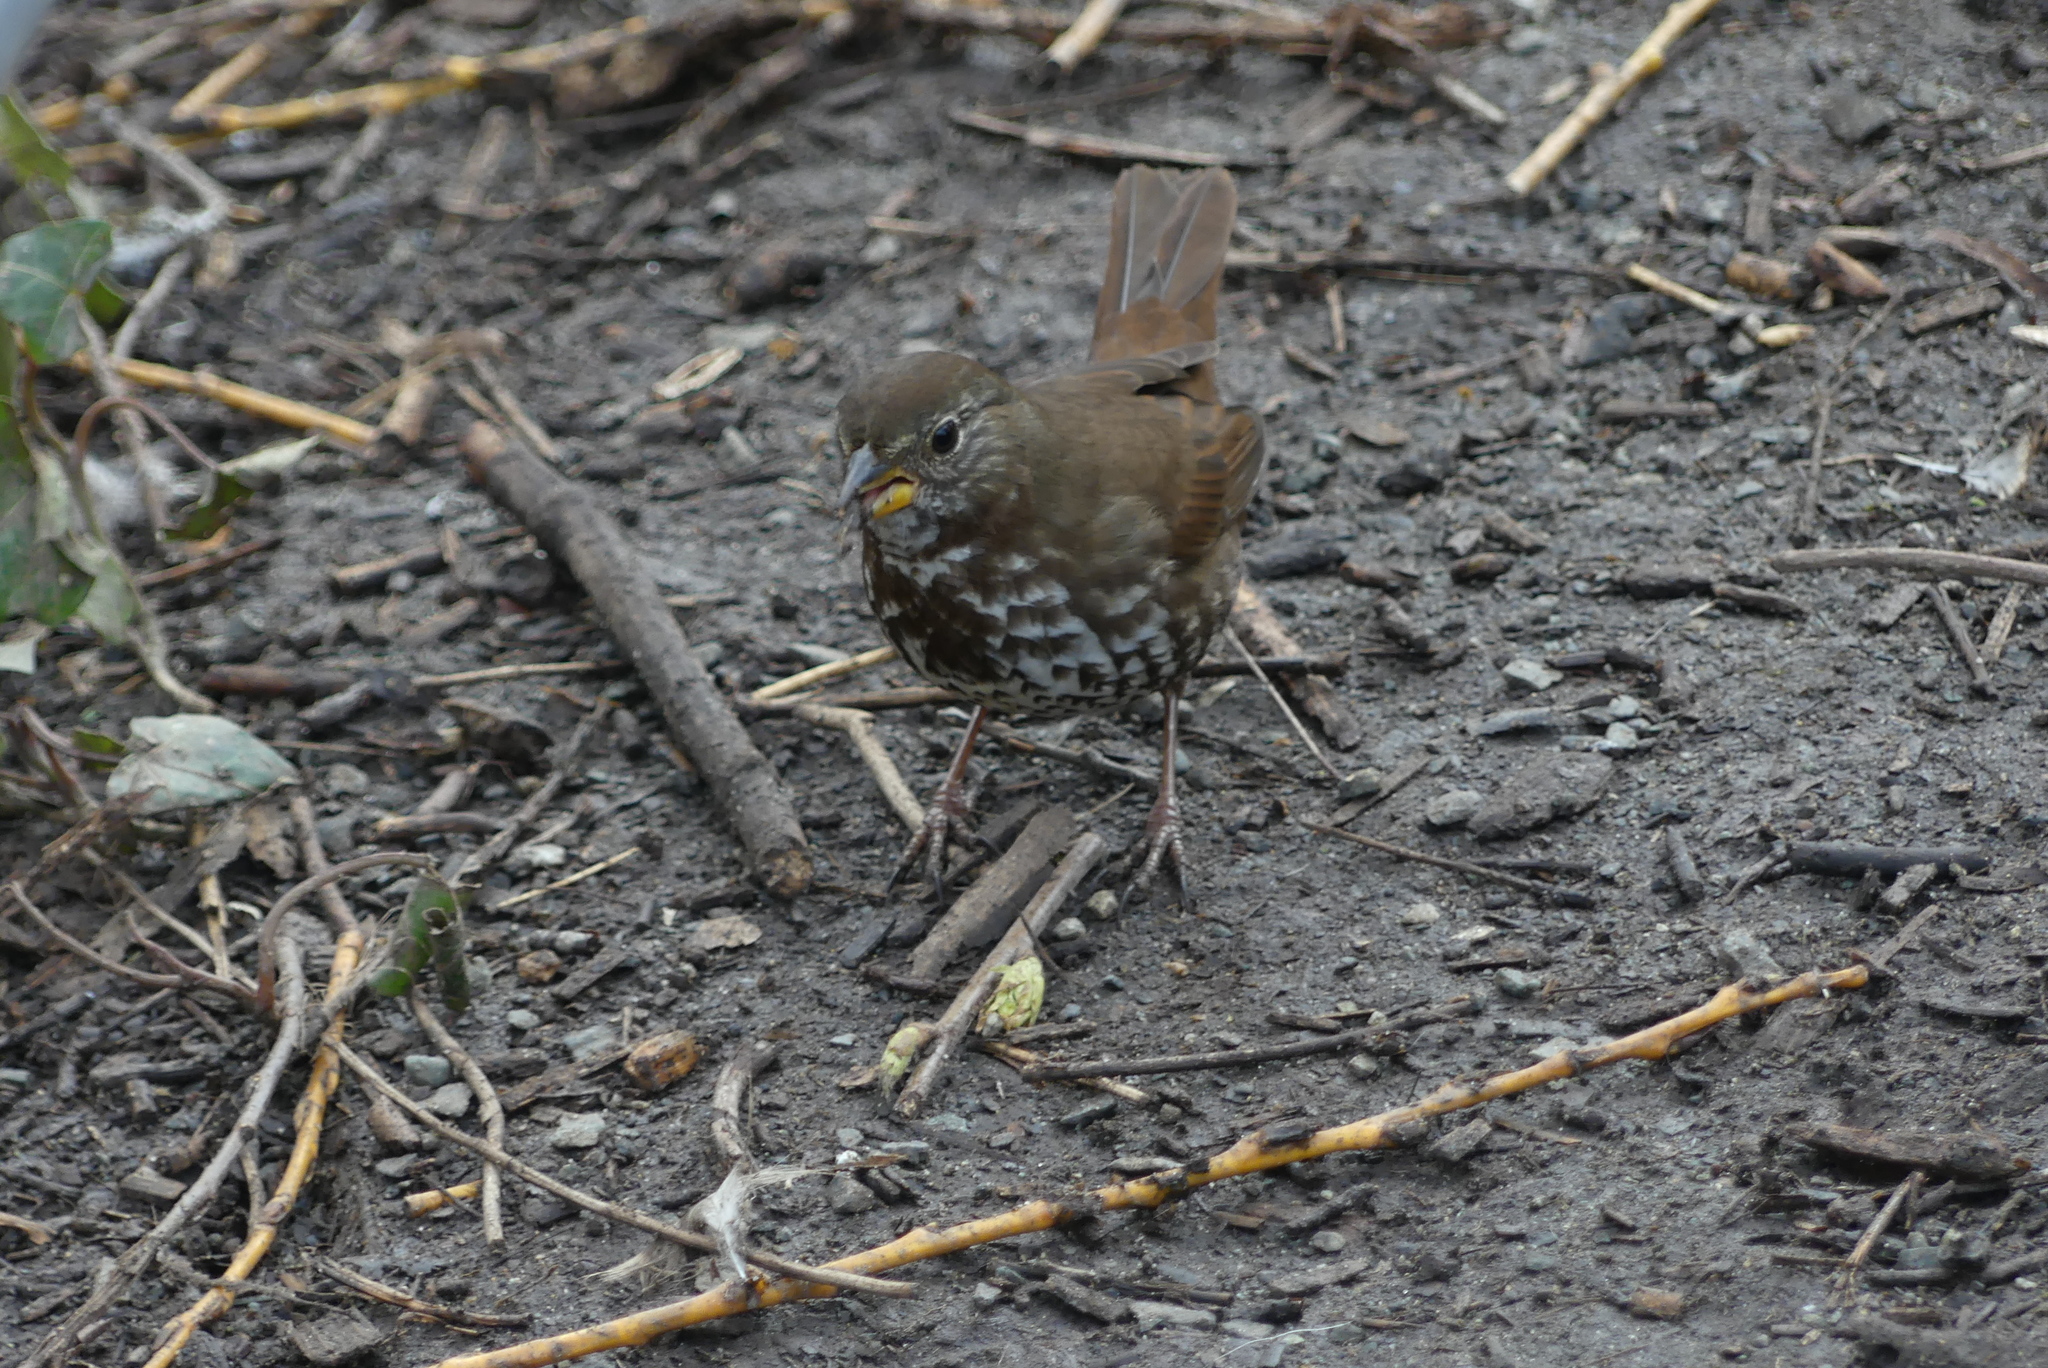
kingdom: Animalia
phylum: Chordata
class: Aves
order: Passeriformes
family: Passerellidae
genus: Passerella
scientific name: Passerella iliaca
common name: Fox sparrow
